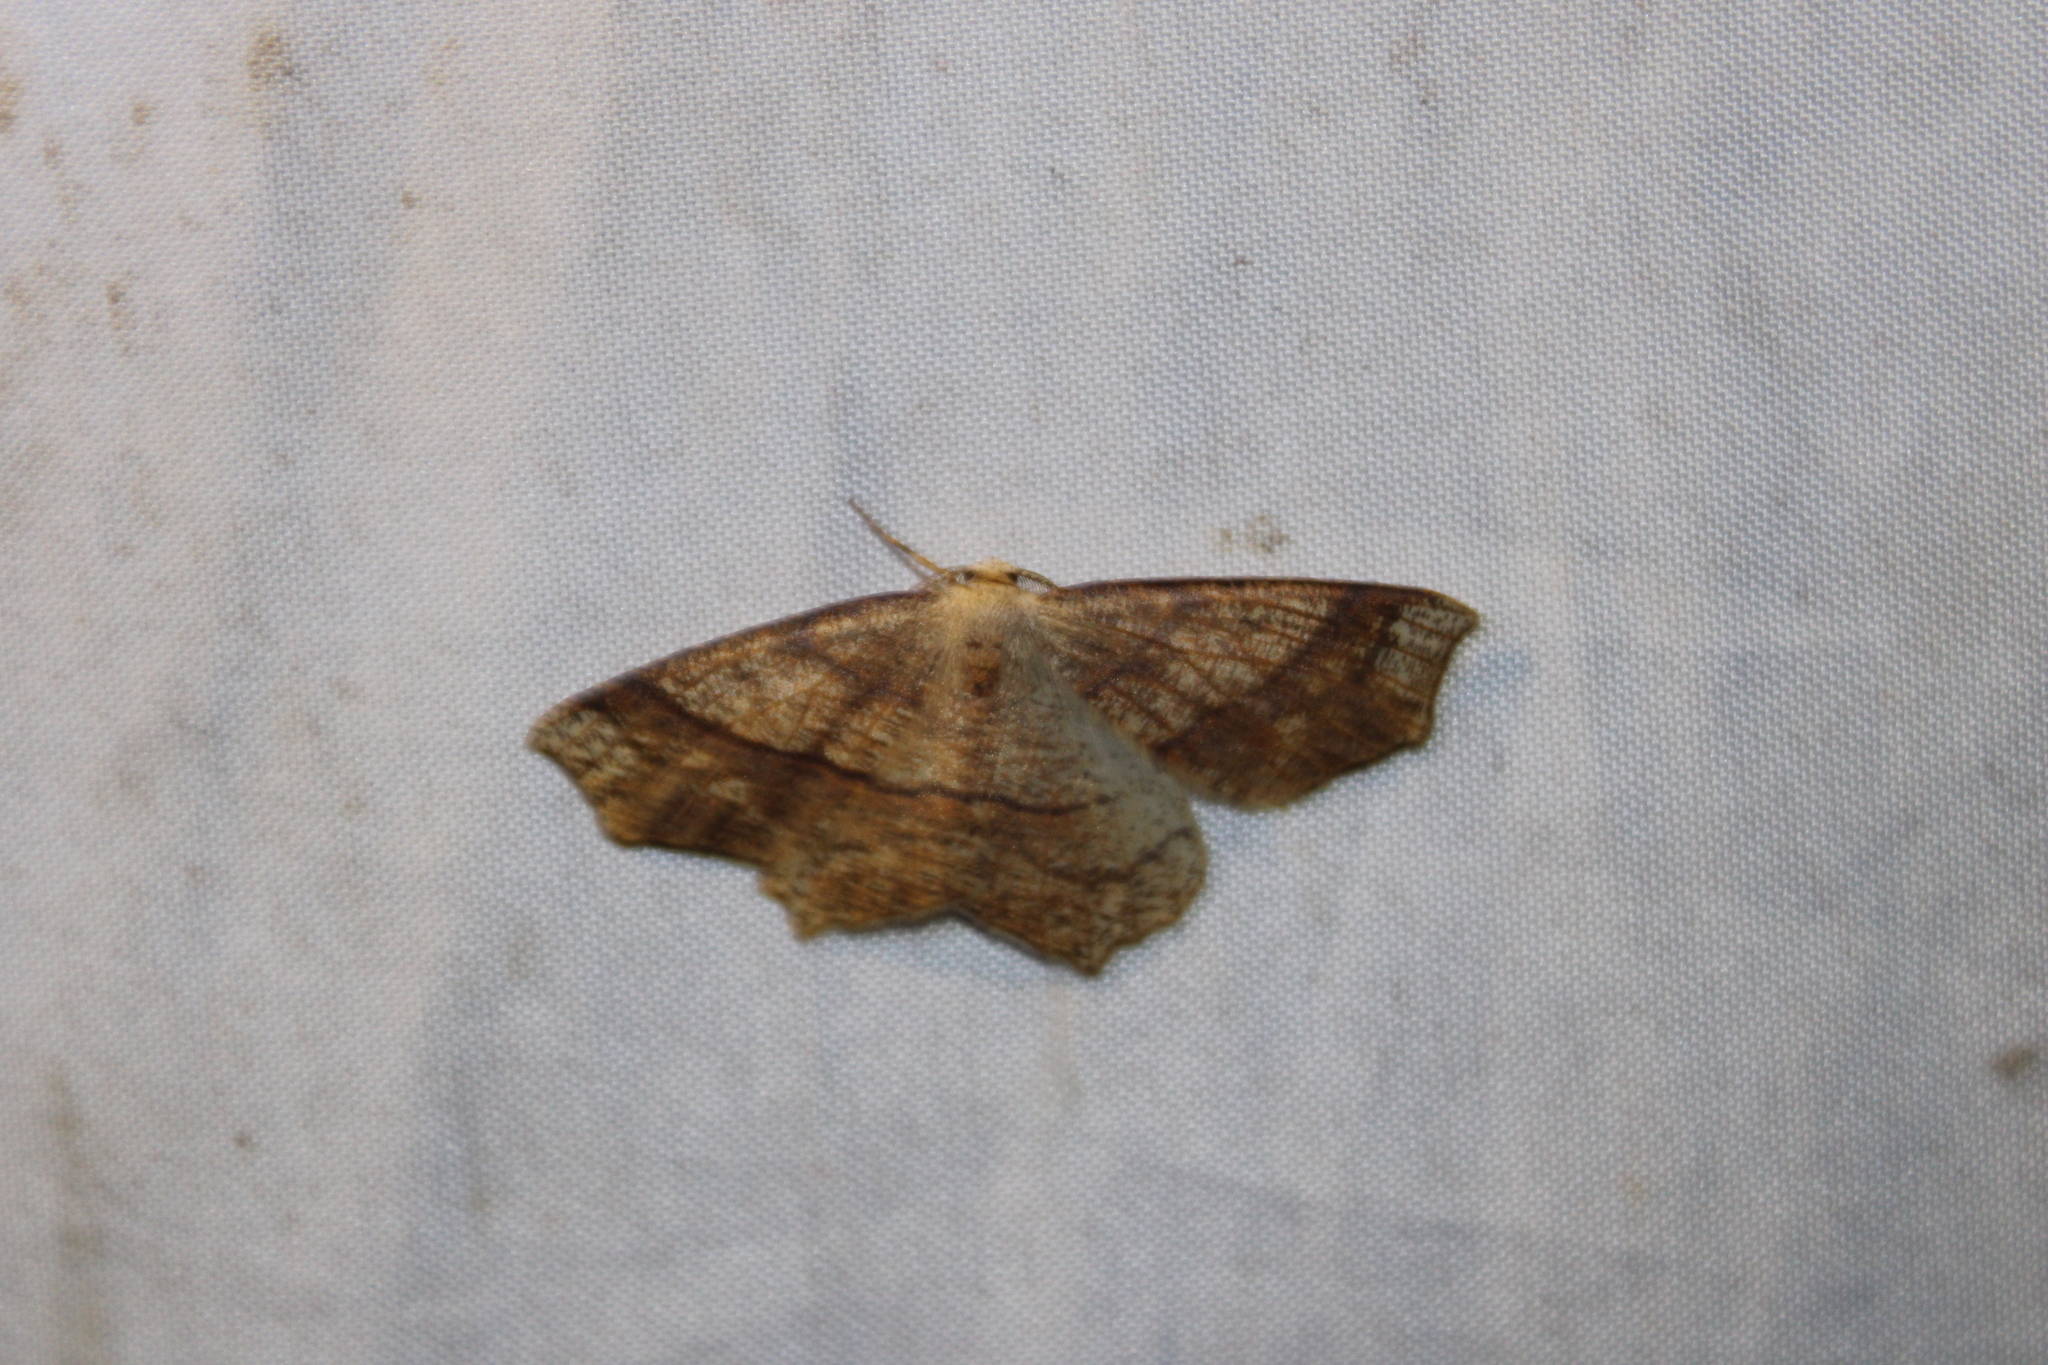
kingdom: Animalia
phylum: Arthropoda
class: Insecta
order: Lepidoptera
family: Geometridae
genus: Besma
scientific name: Besma quercivoraria
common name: Oak besma
